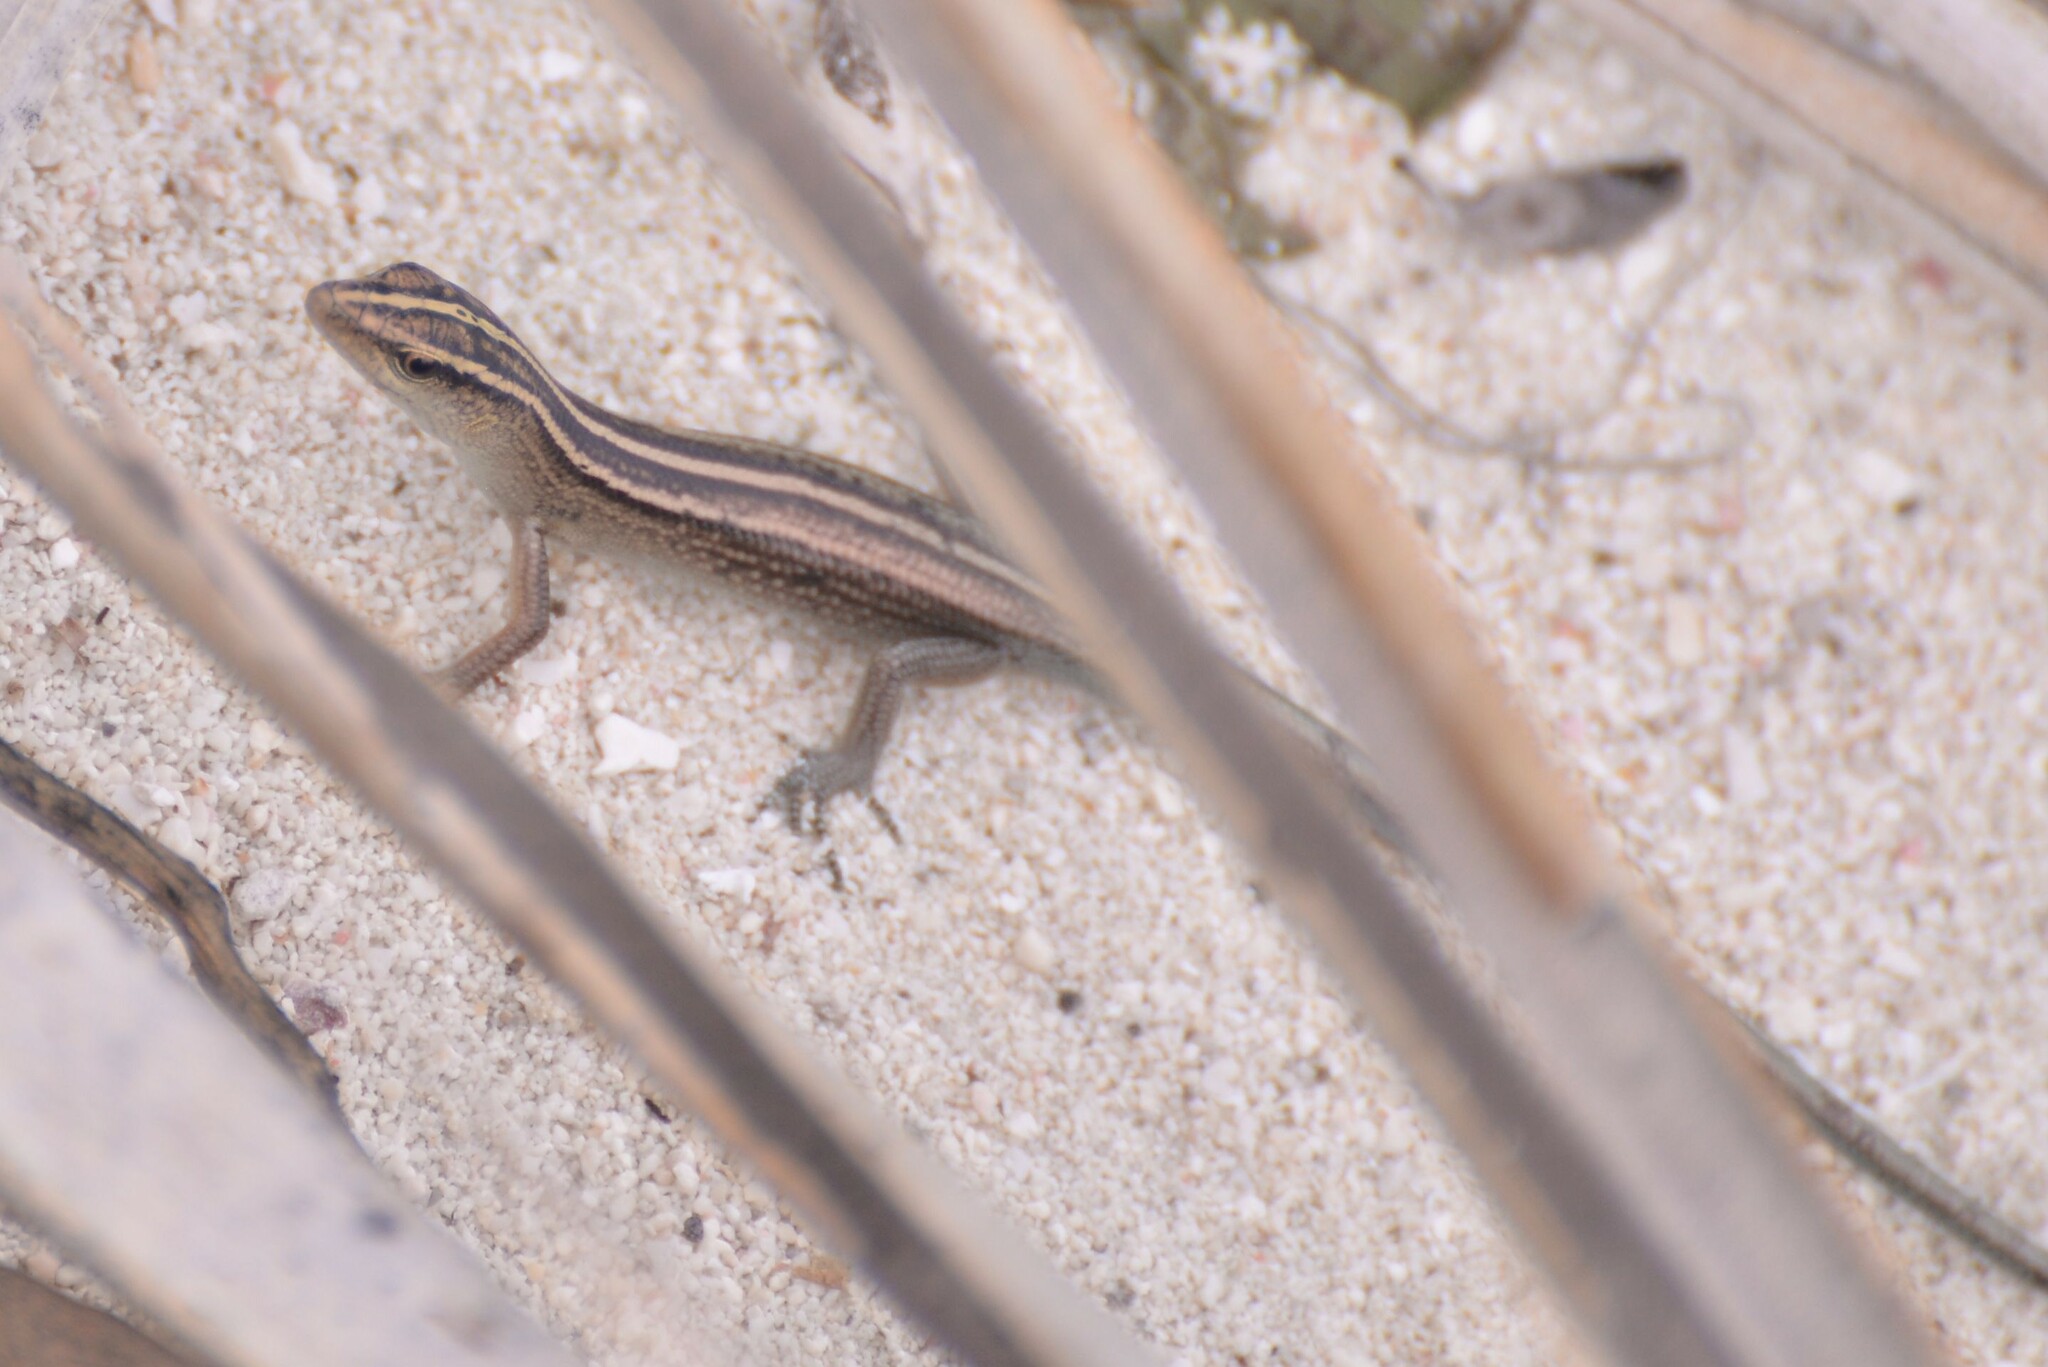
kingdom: Animalia
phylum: Chordata
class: Squamata
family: Scincidae
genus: Emoia
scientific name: Emoia cyanura
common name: Copper-tailed skink
